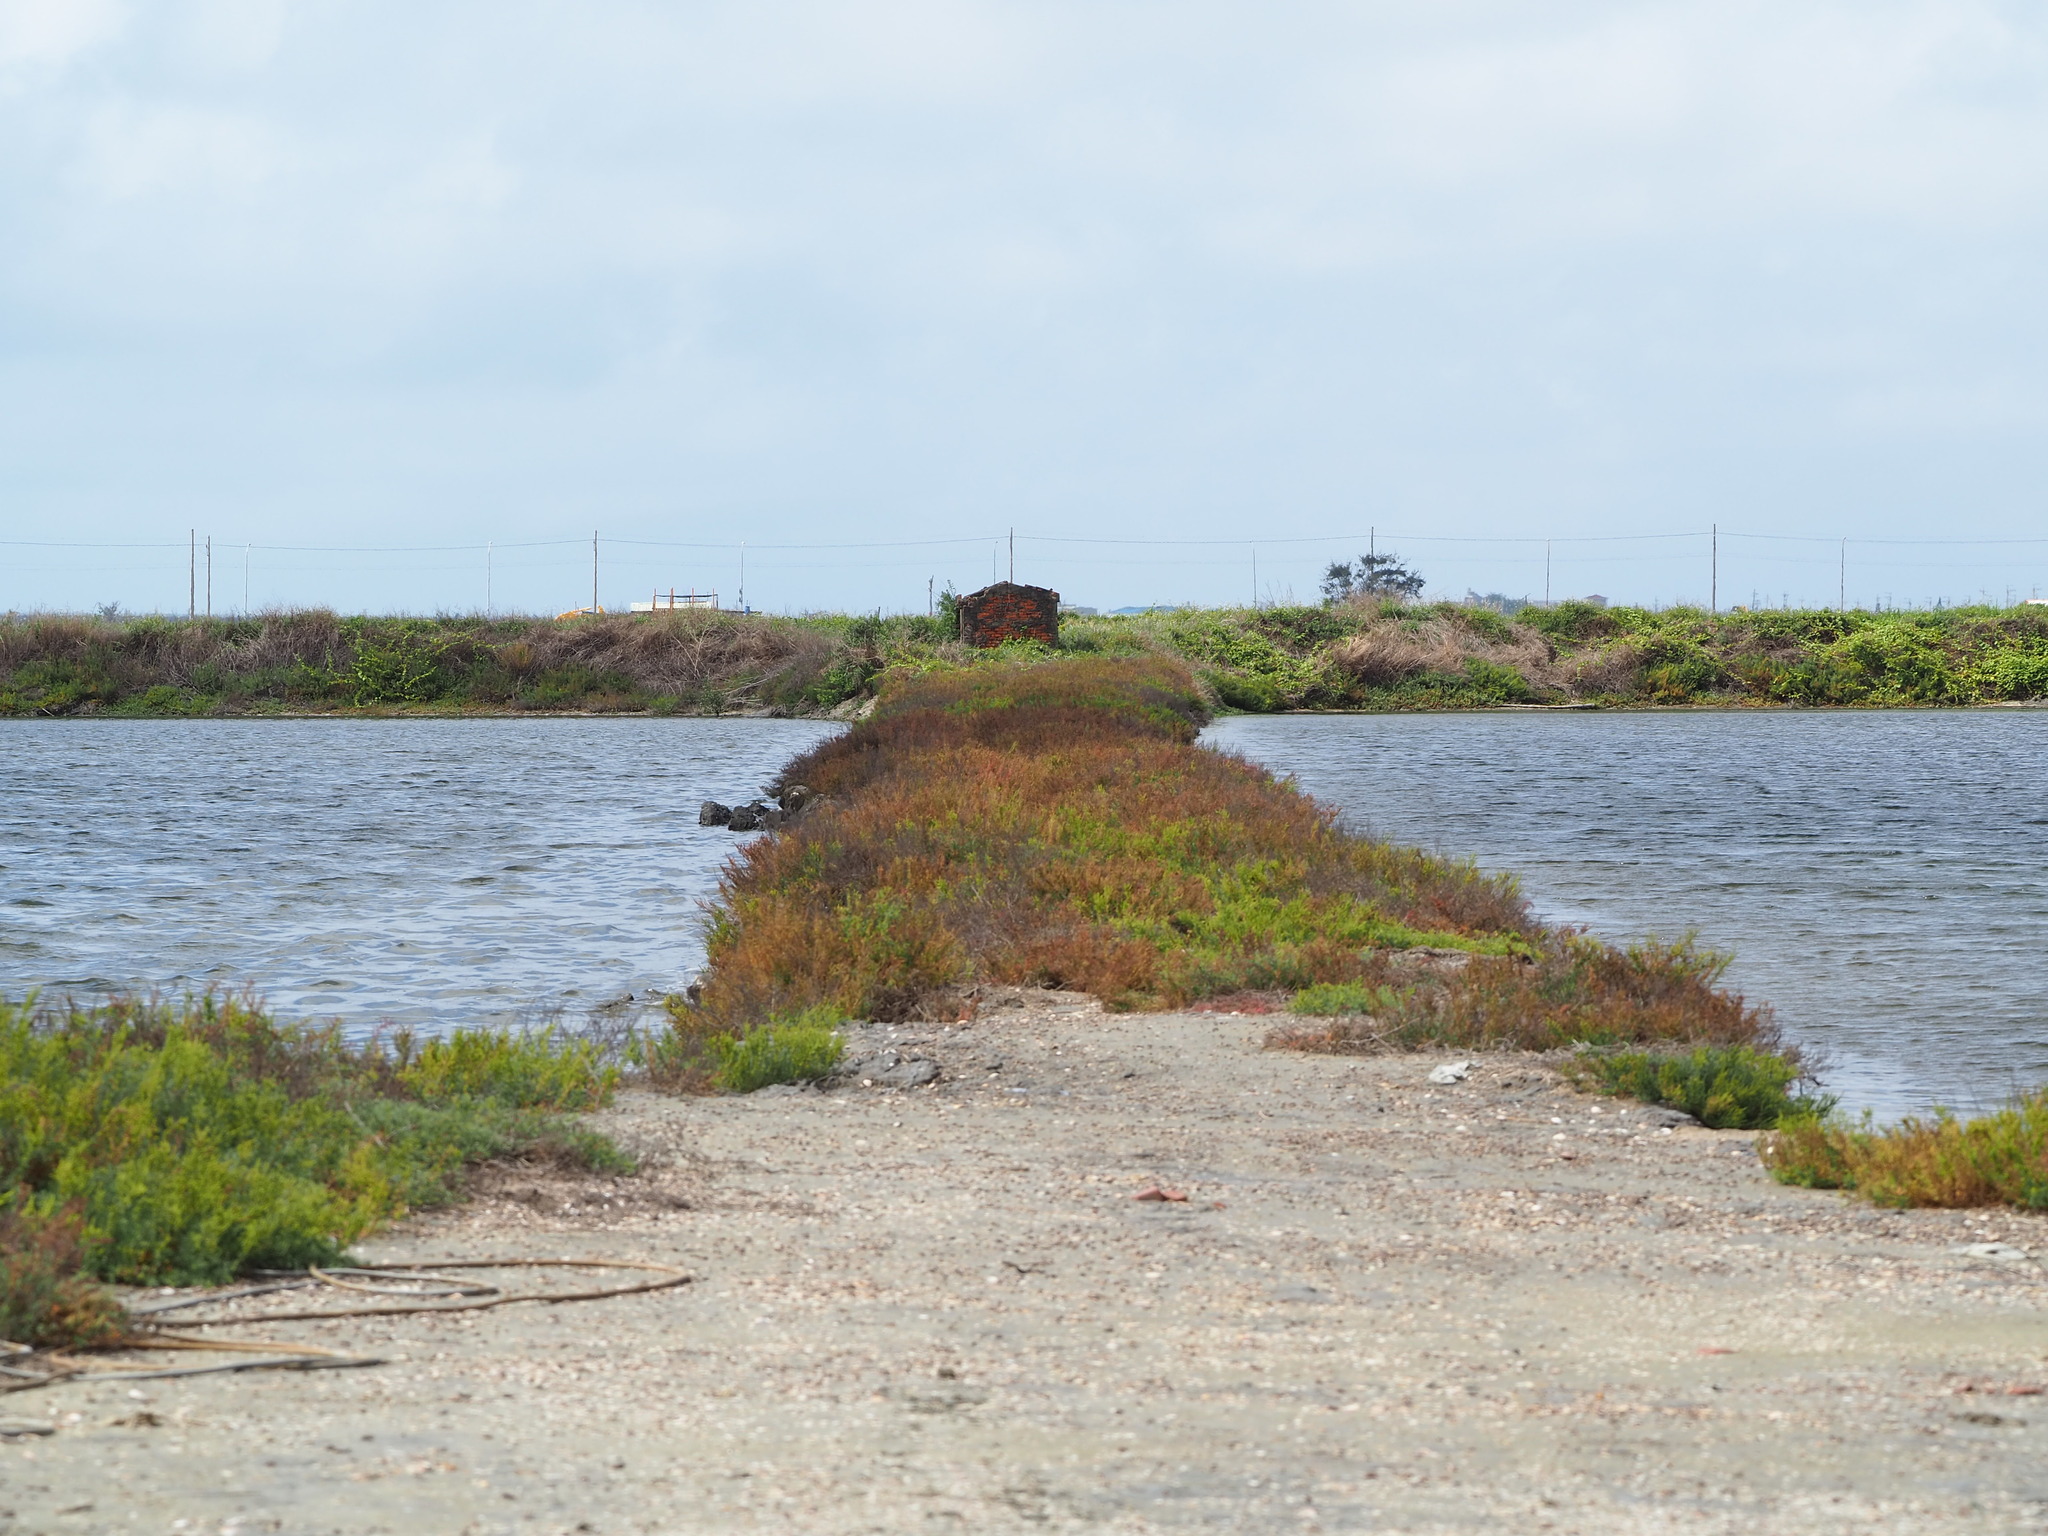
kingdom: Plantae
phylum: Tracheophyta
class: Magnoliopsida
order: Caryophyllales
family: Amaranthaceae
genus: Suaeda
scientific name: Suaeda maritima
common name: Annual sea-blite
